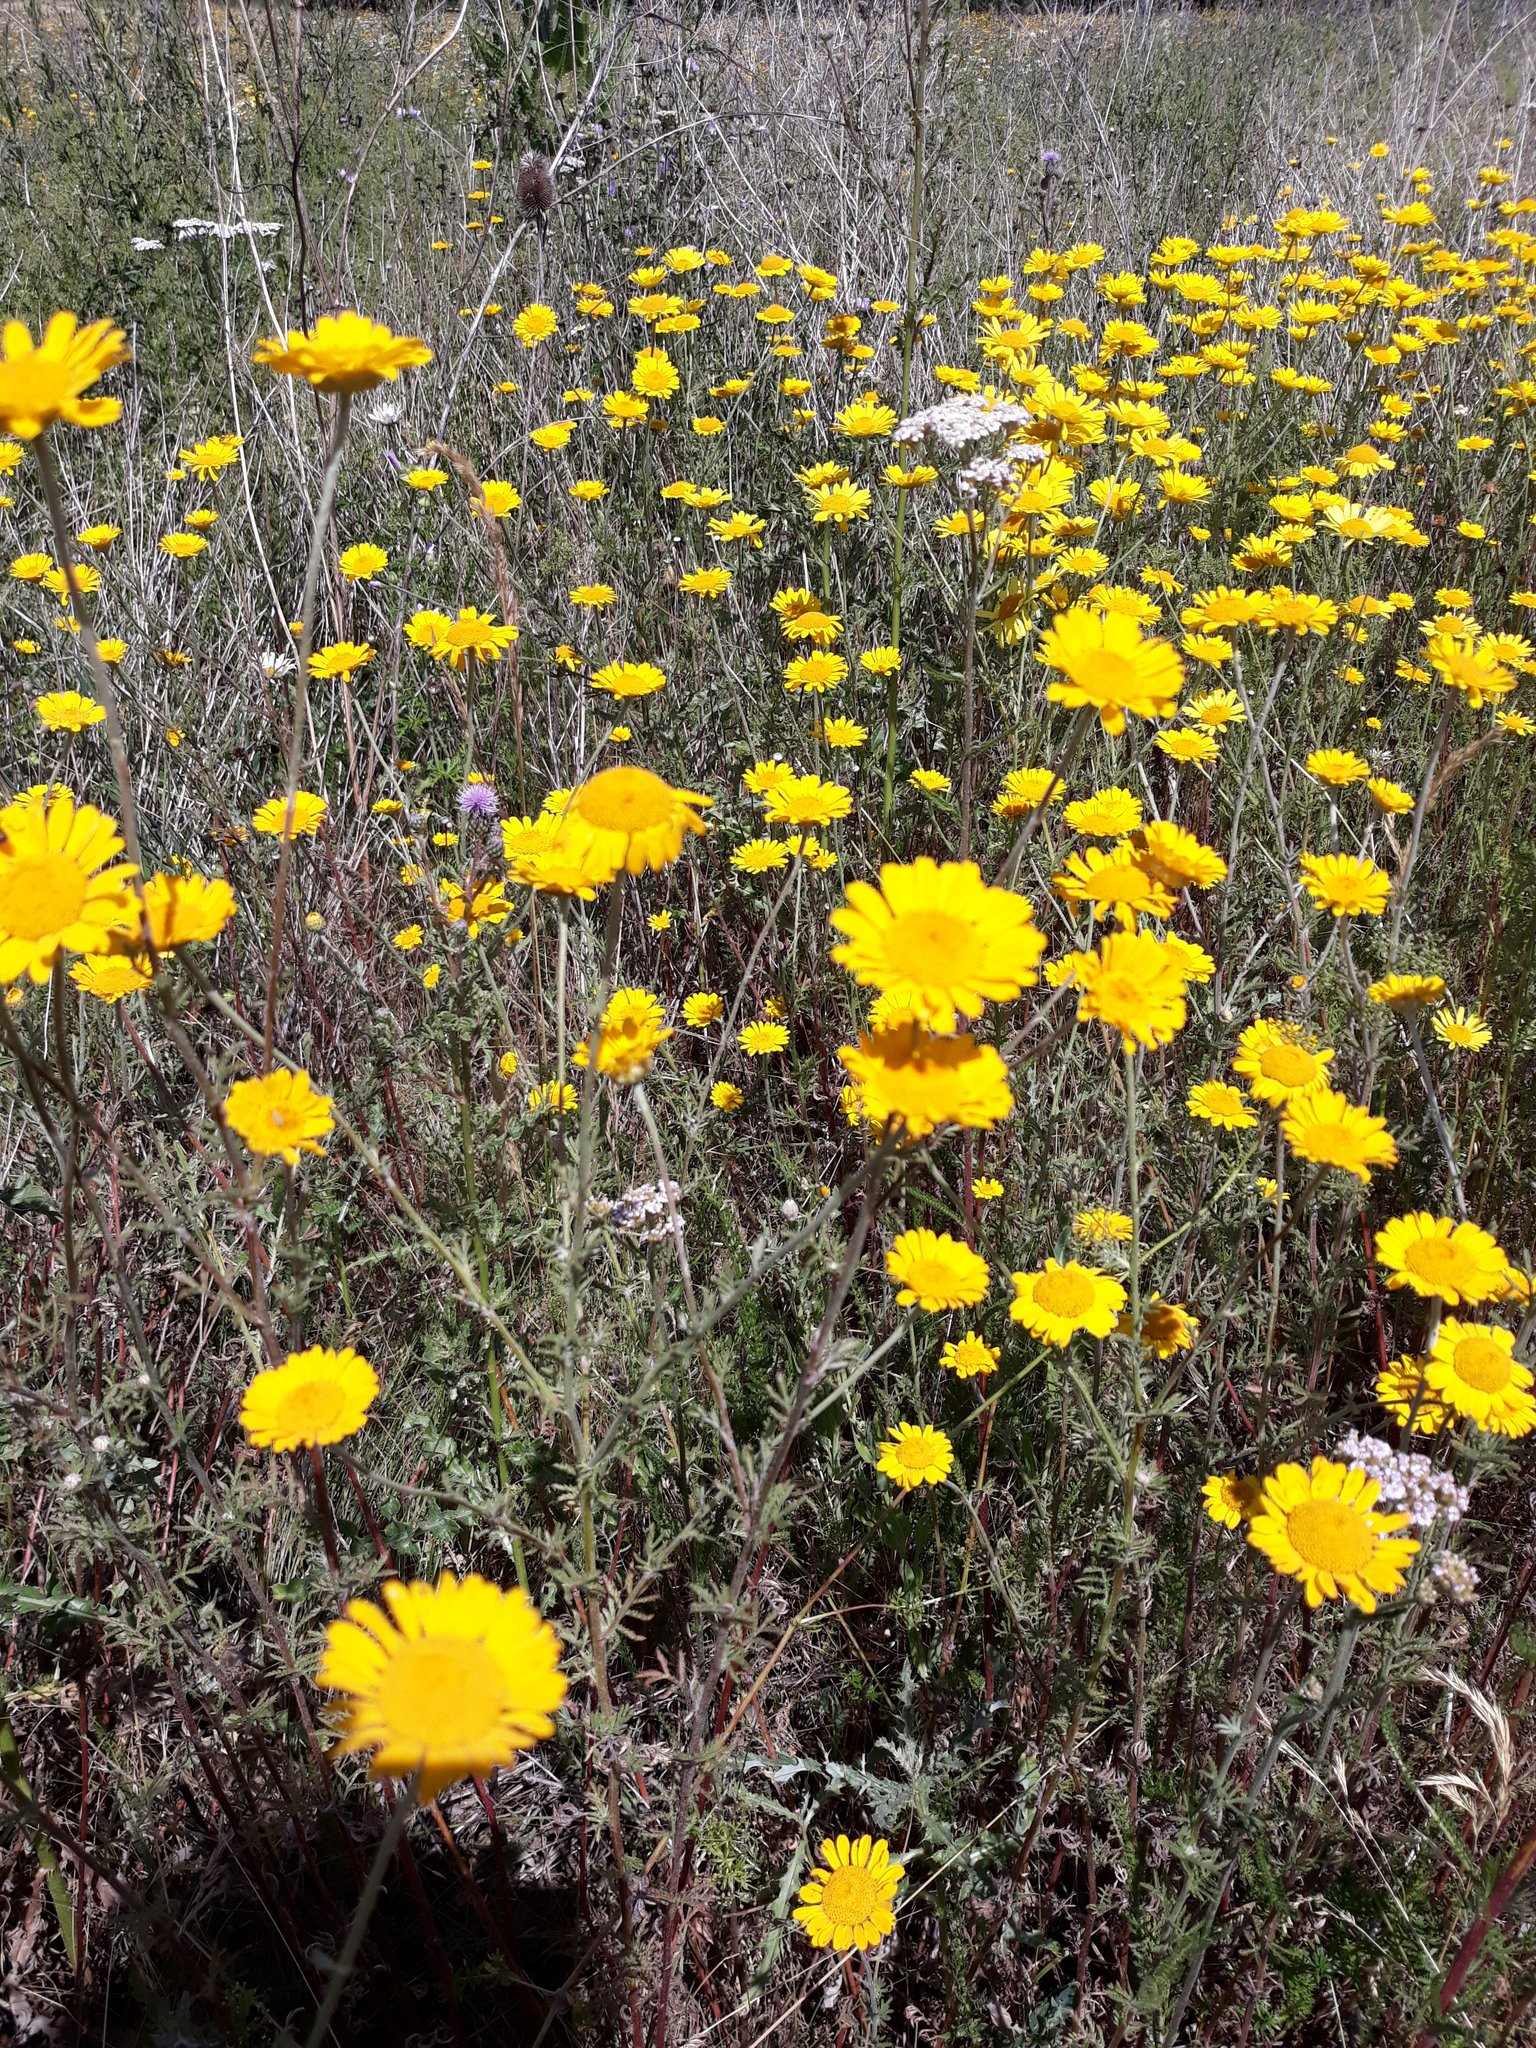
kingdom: Plantae
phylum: Tracheophyta
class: Magnoliopsida
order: Asterales
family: Asteraceae
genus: Cota
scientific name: Cota tinctoria
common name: Golden chamomile
